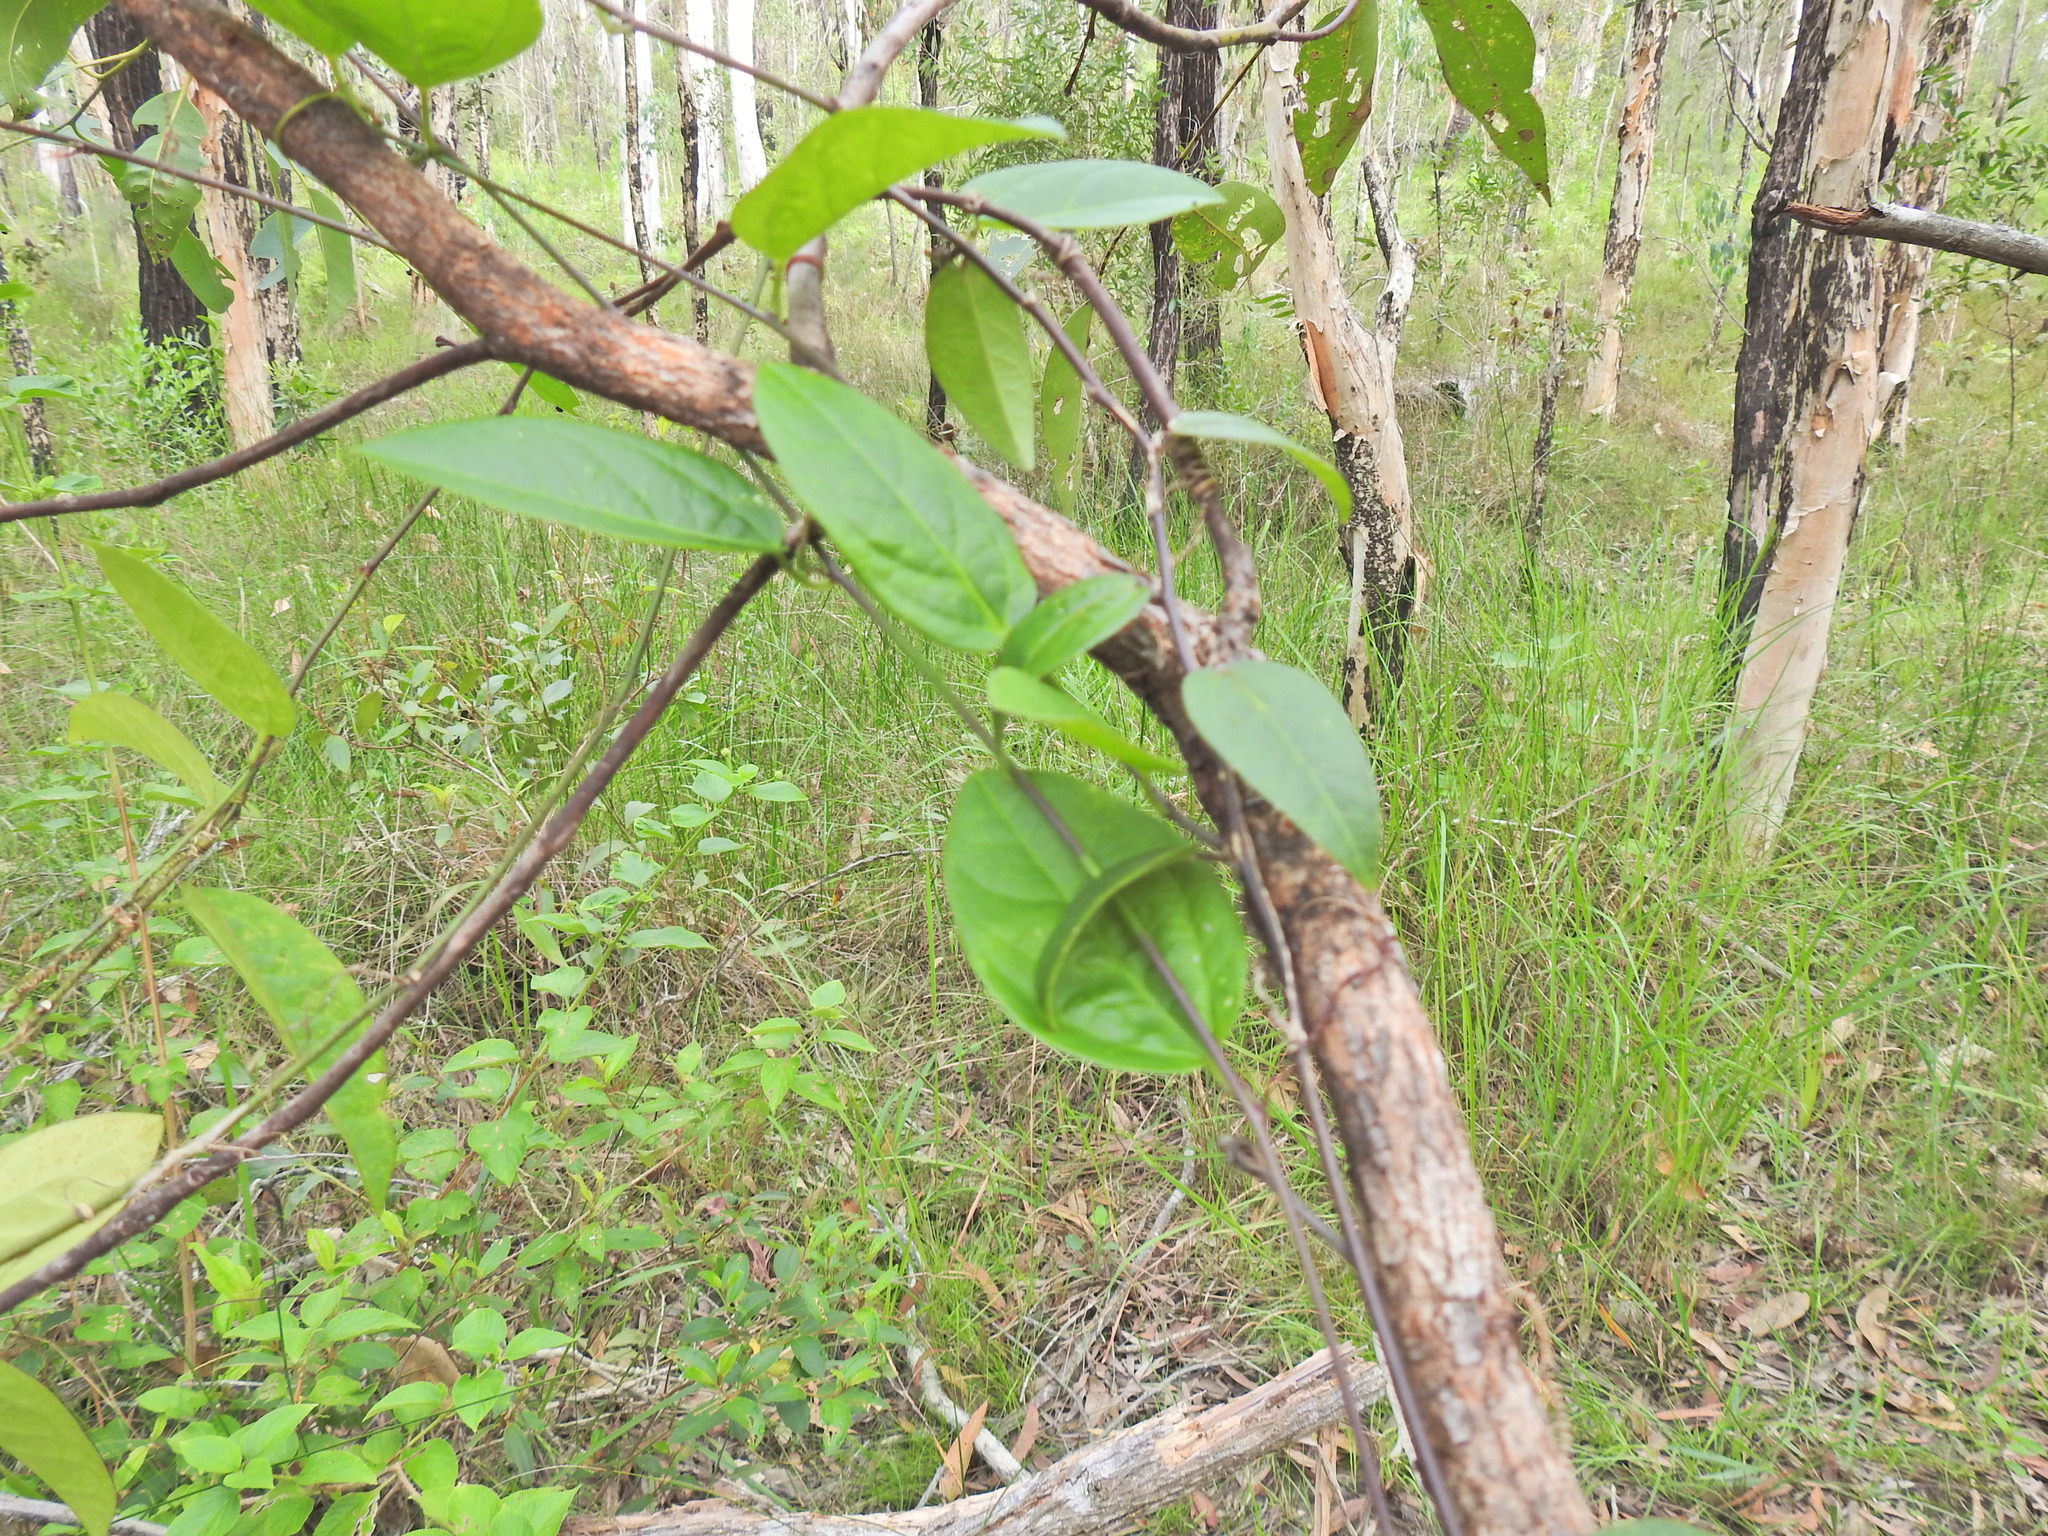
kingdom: Plantae
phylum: Tracheophyta
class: Magnoliopsida
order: Malpighiales
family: Passifloraceae
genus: Passiflora
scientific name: Passiflora pallida
